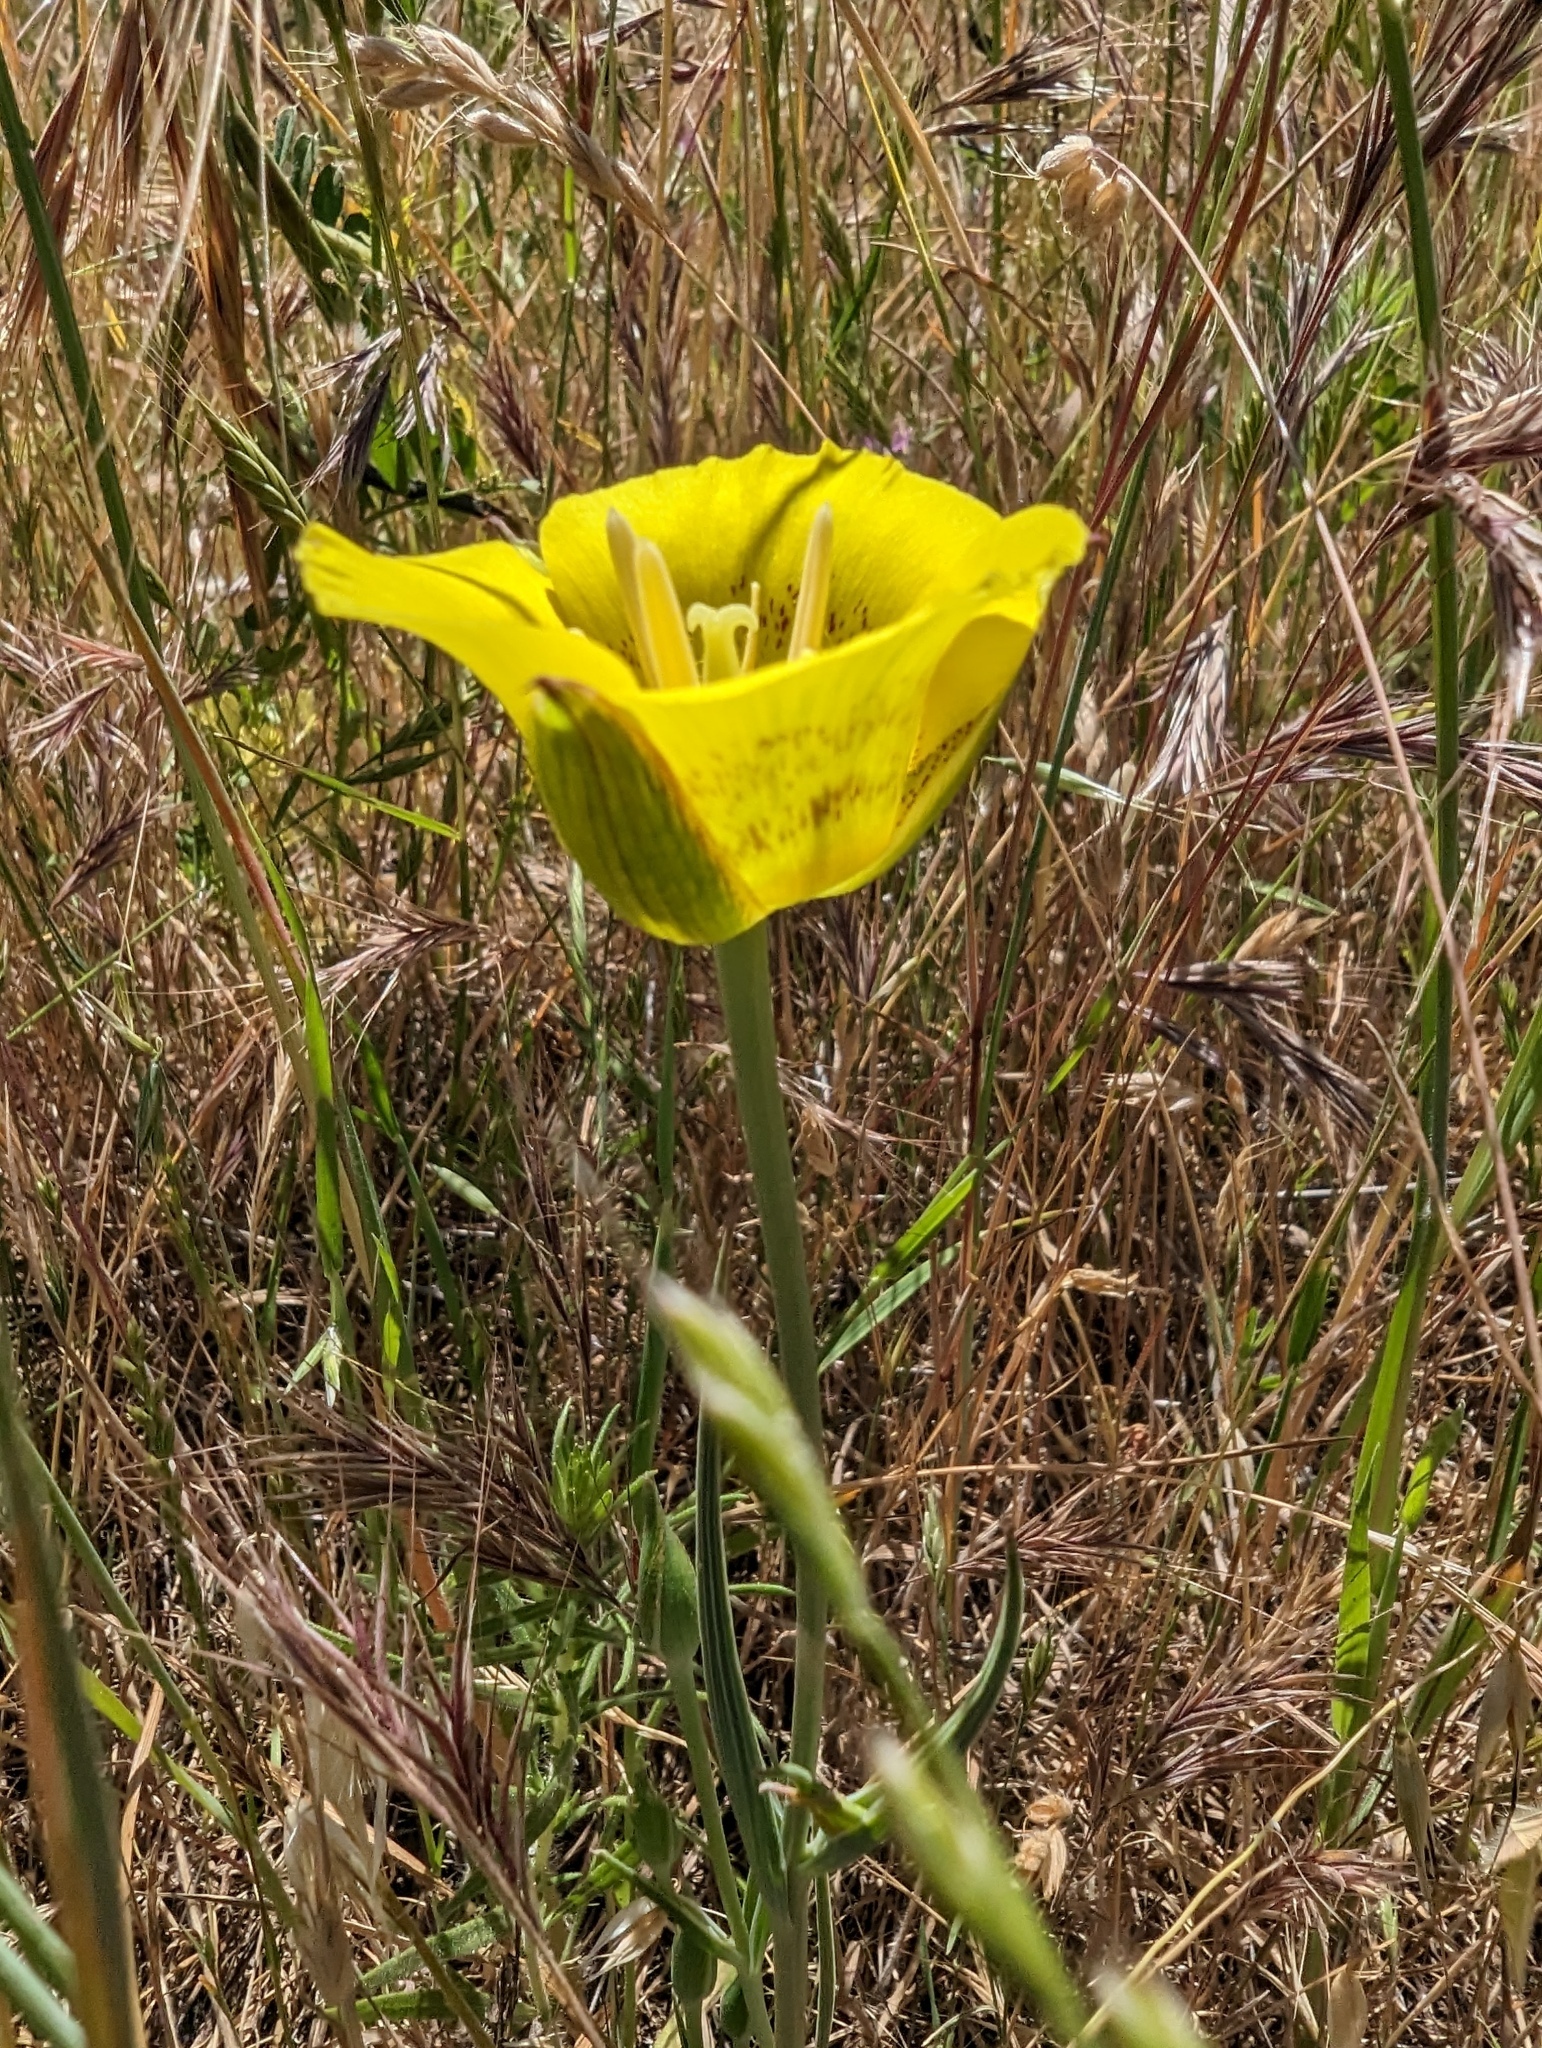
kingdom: Plantae
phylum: Tracheophyta
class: Liliopsida
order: Liliales
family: Liliaceae
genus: Calochortus
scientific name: Calochortus luteus
